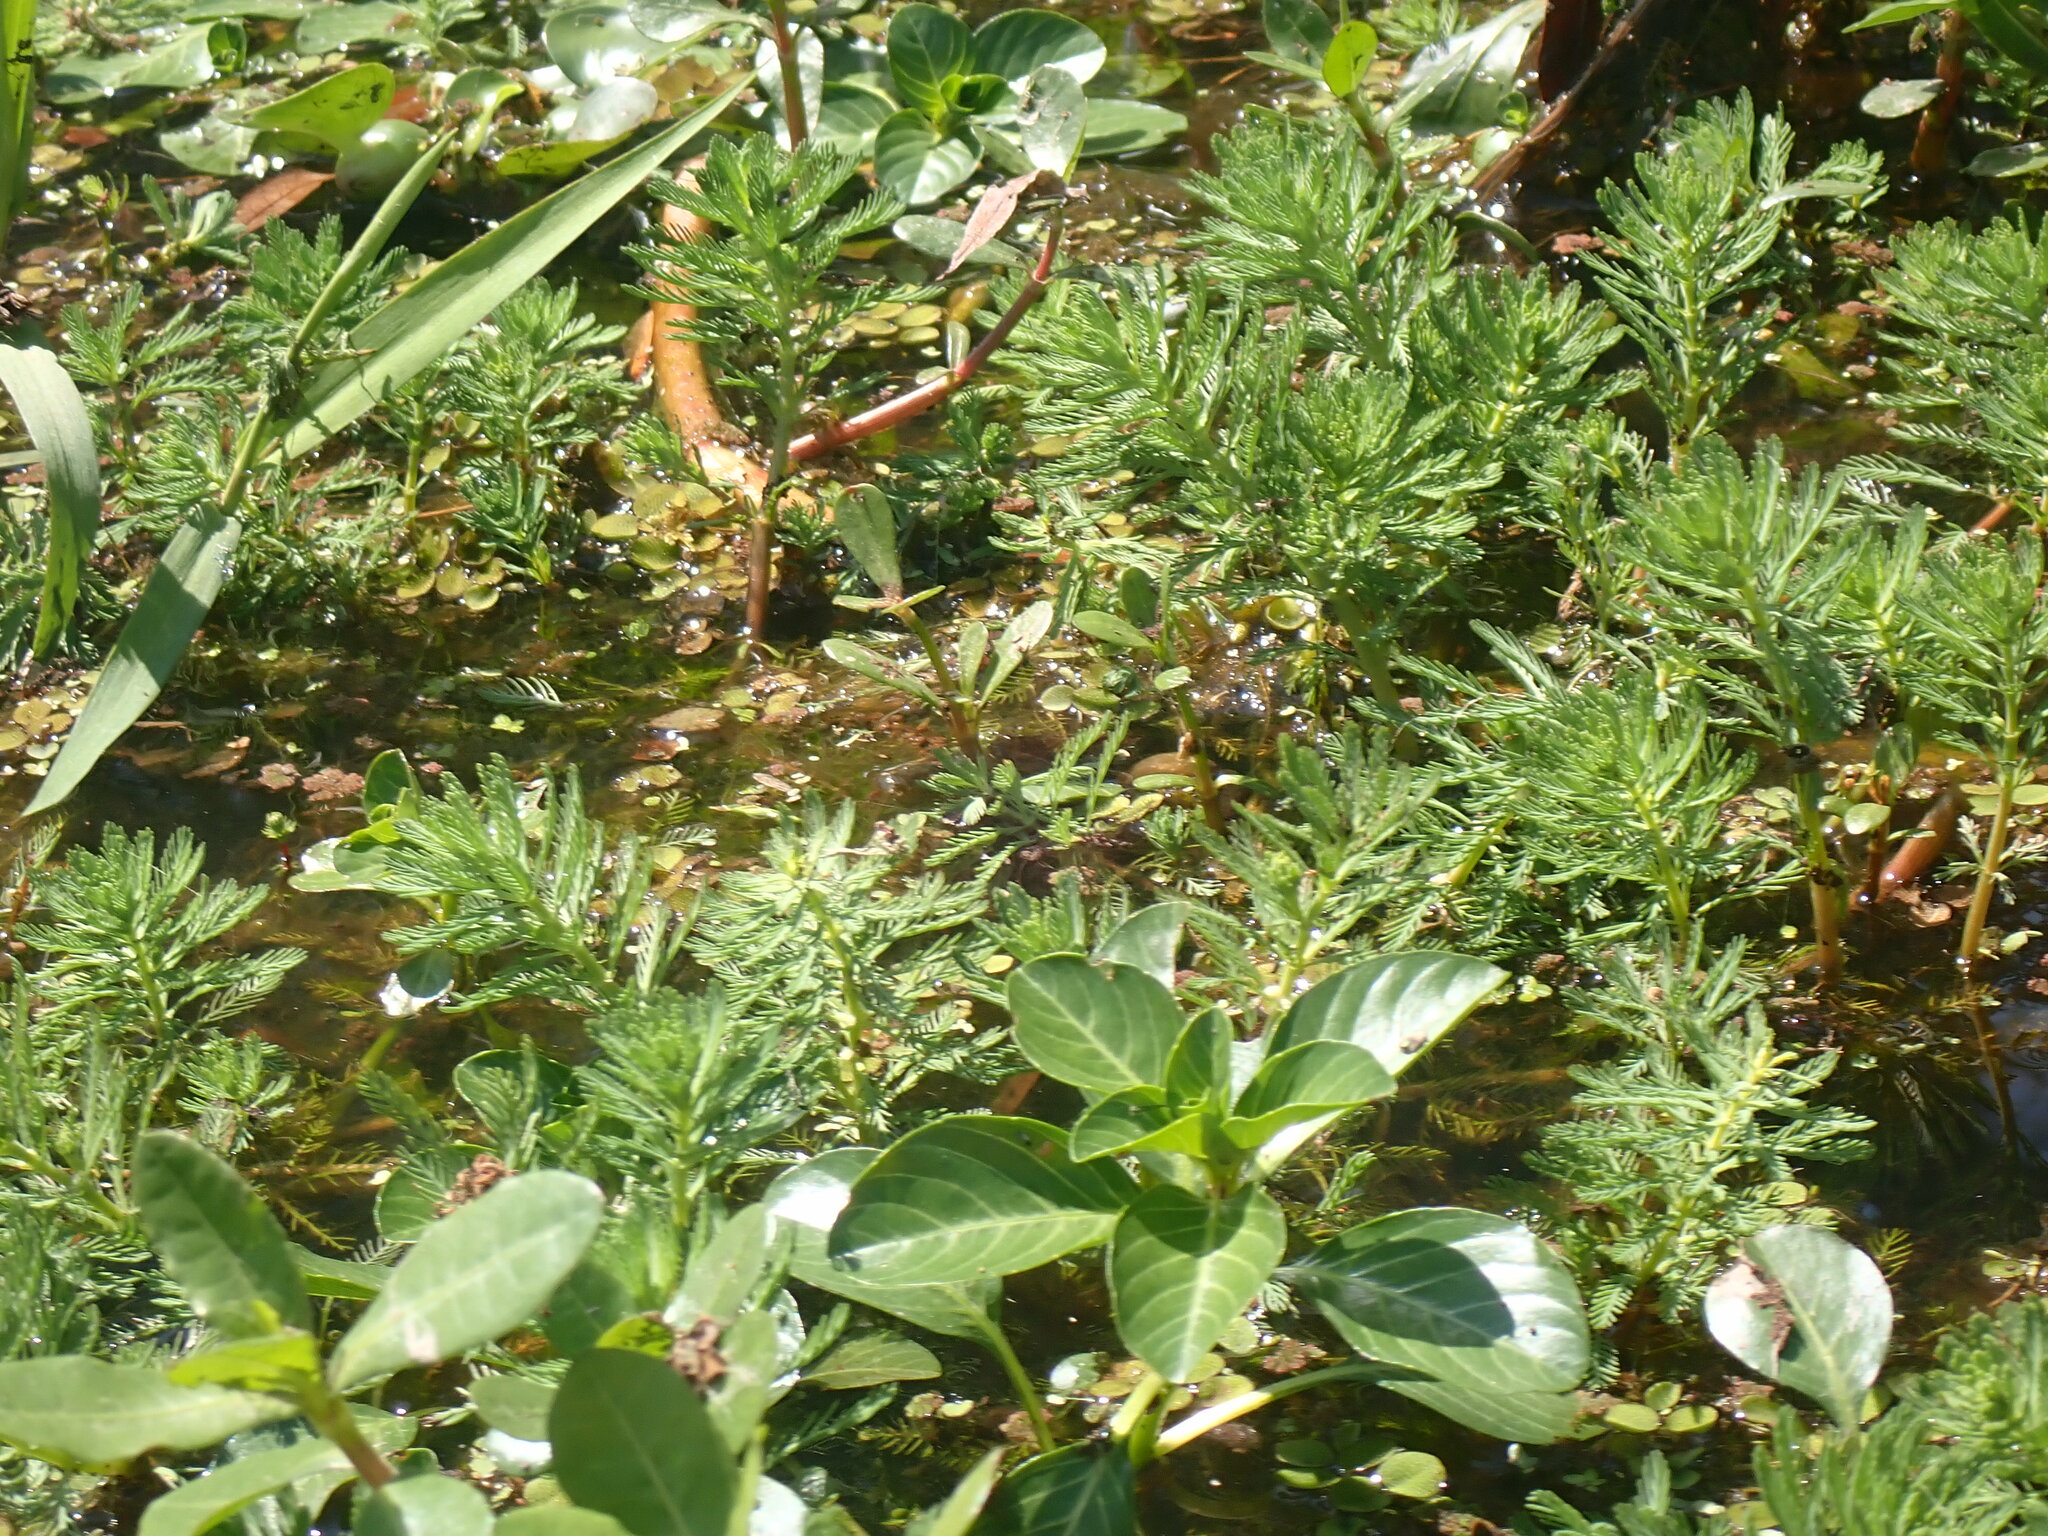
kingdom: Plantae
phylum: Tracheophyta
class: Magnoliopsida
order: Saxifragales
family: Haloragaceae
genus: Myriophyllum
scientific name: Myriophyllum aquaticum
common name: Parrot's feather
